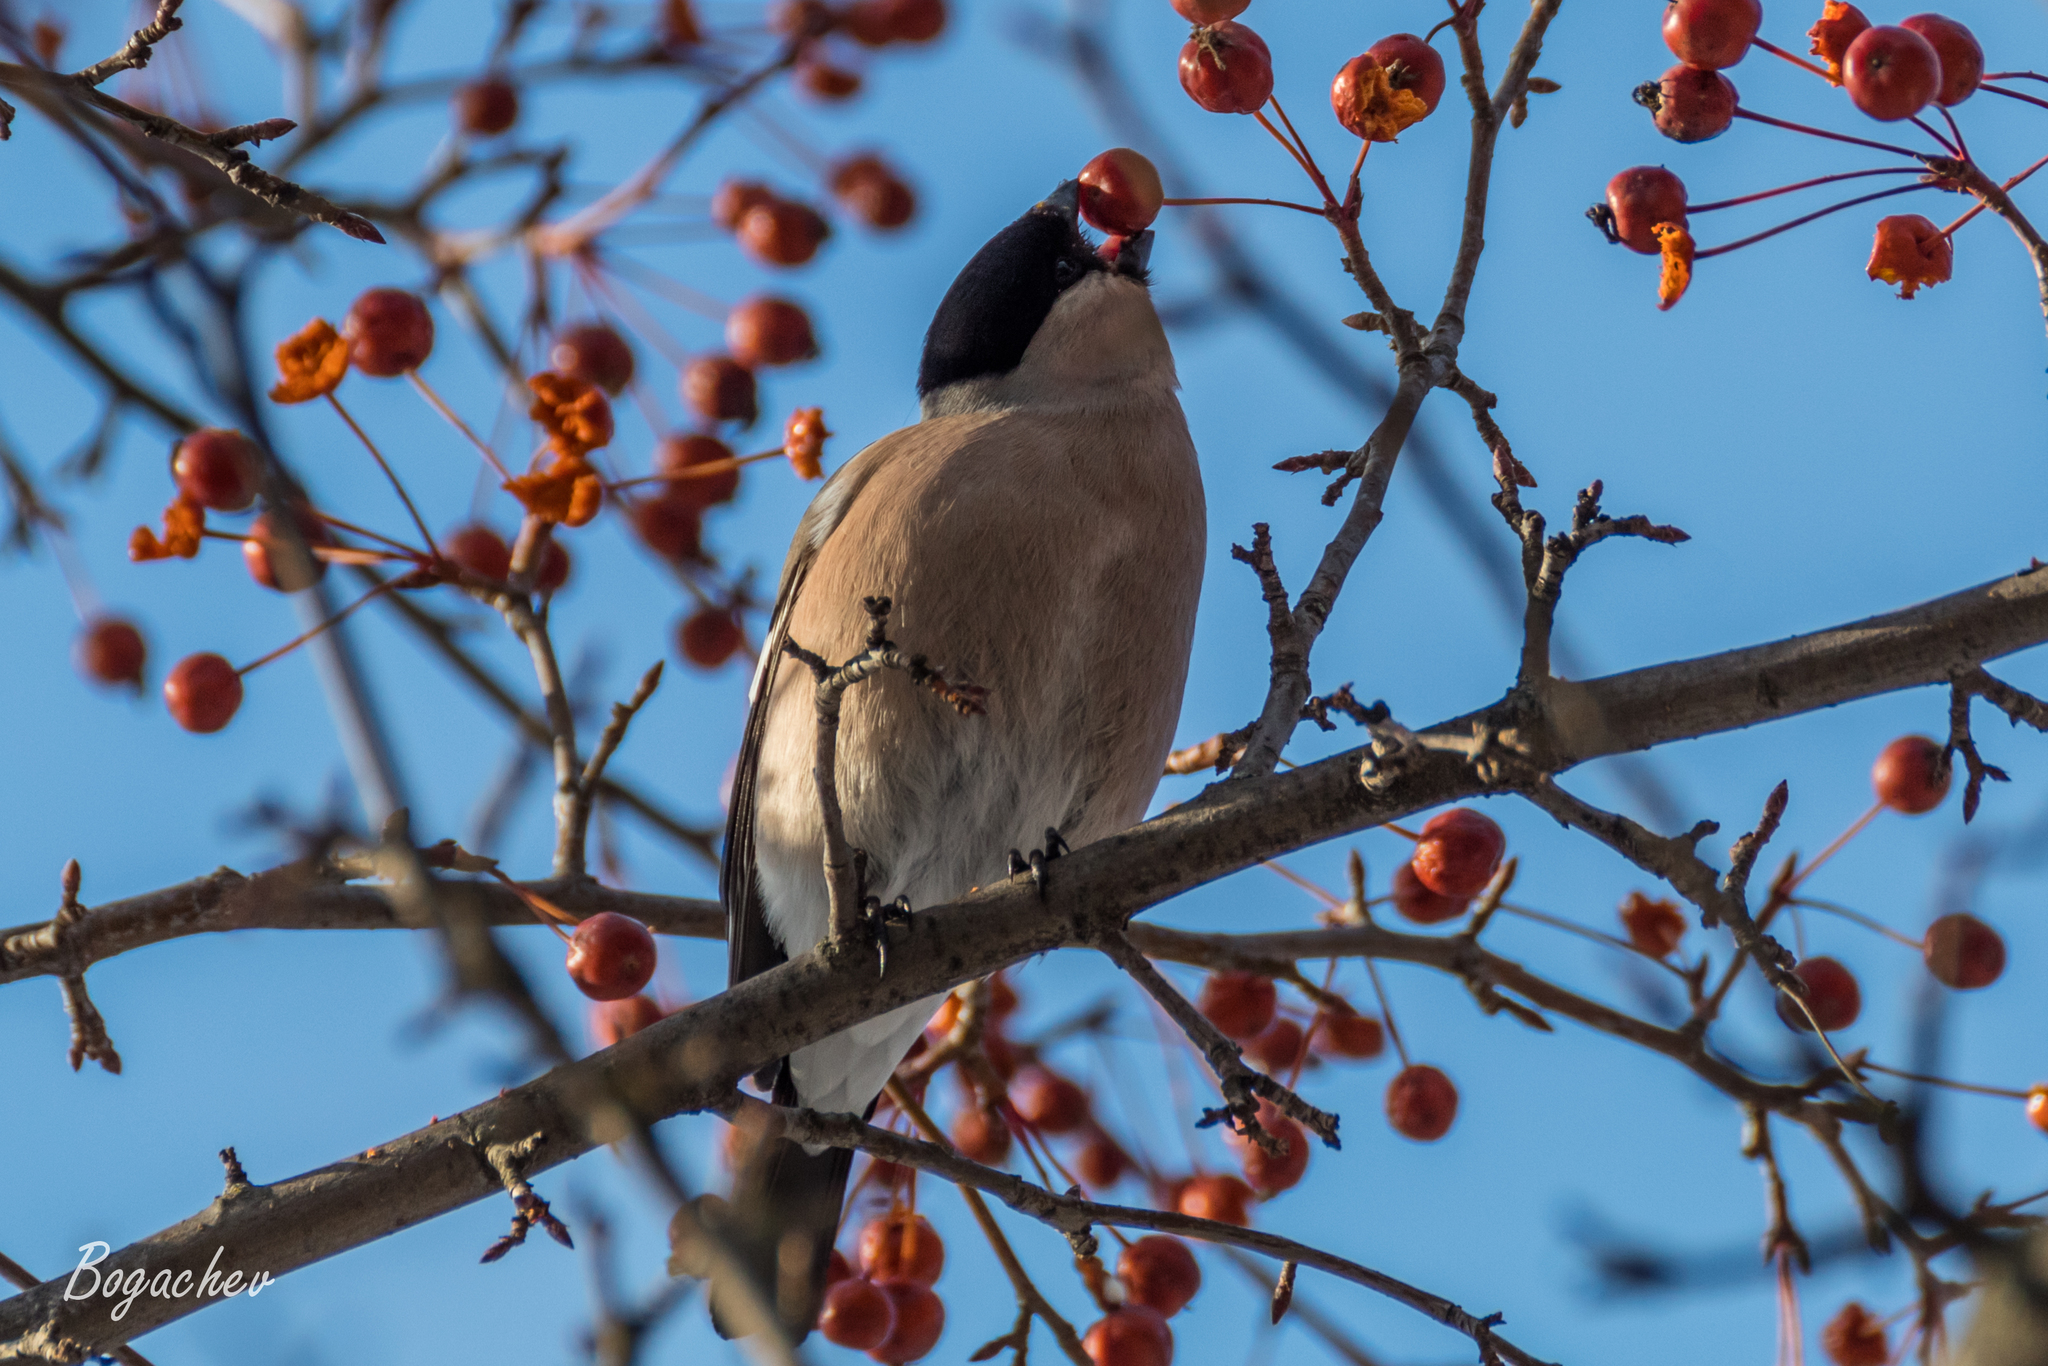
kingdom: Animalia
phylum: Chordata
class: Aves
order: Passeriformes
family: Fringillidae
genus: Pyrrhula
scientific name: Pyrrhula pyrrhula
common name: Eurasian bullfinch
